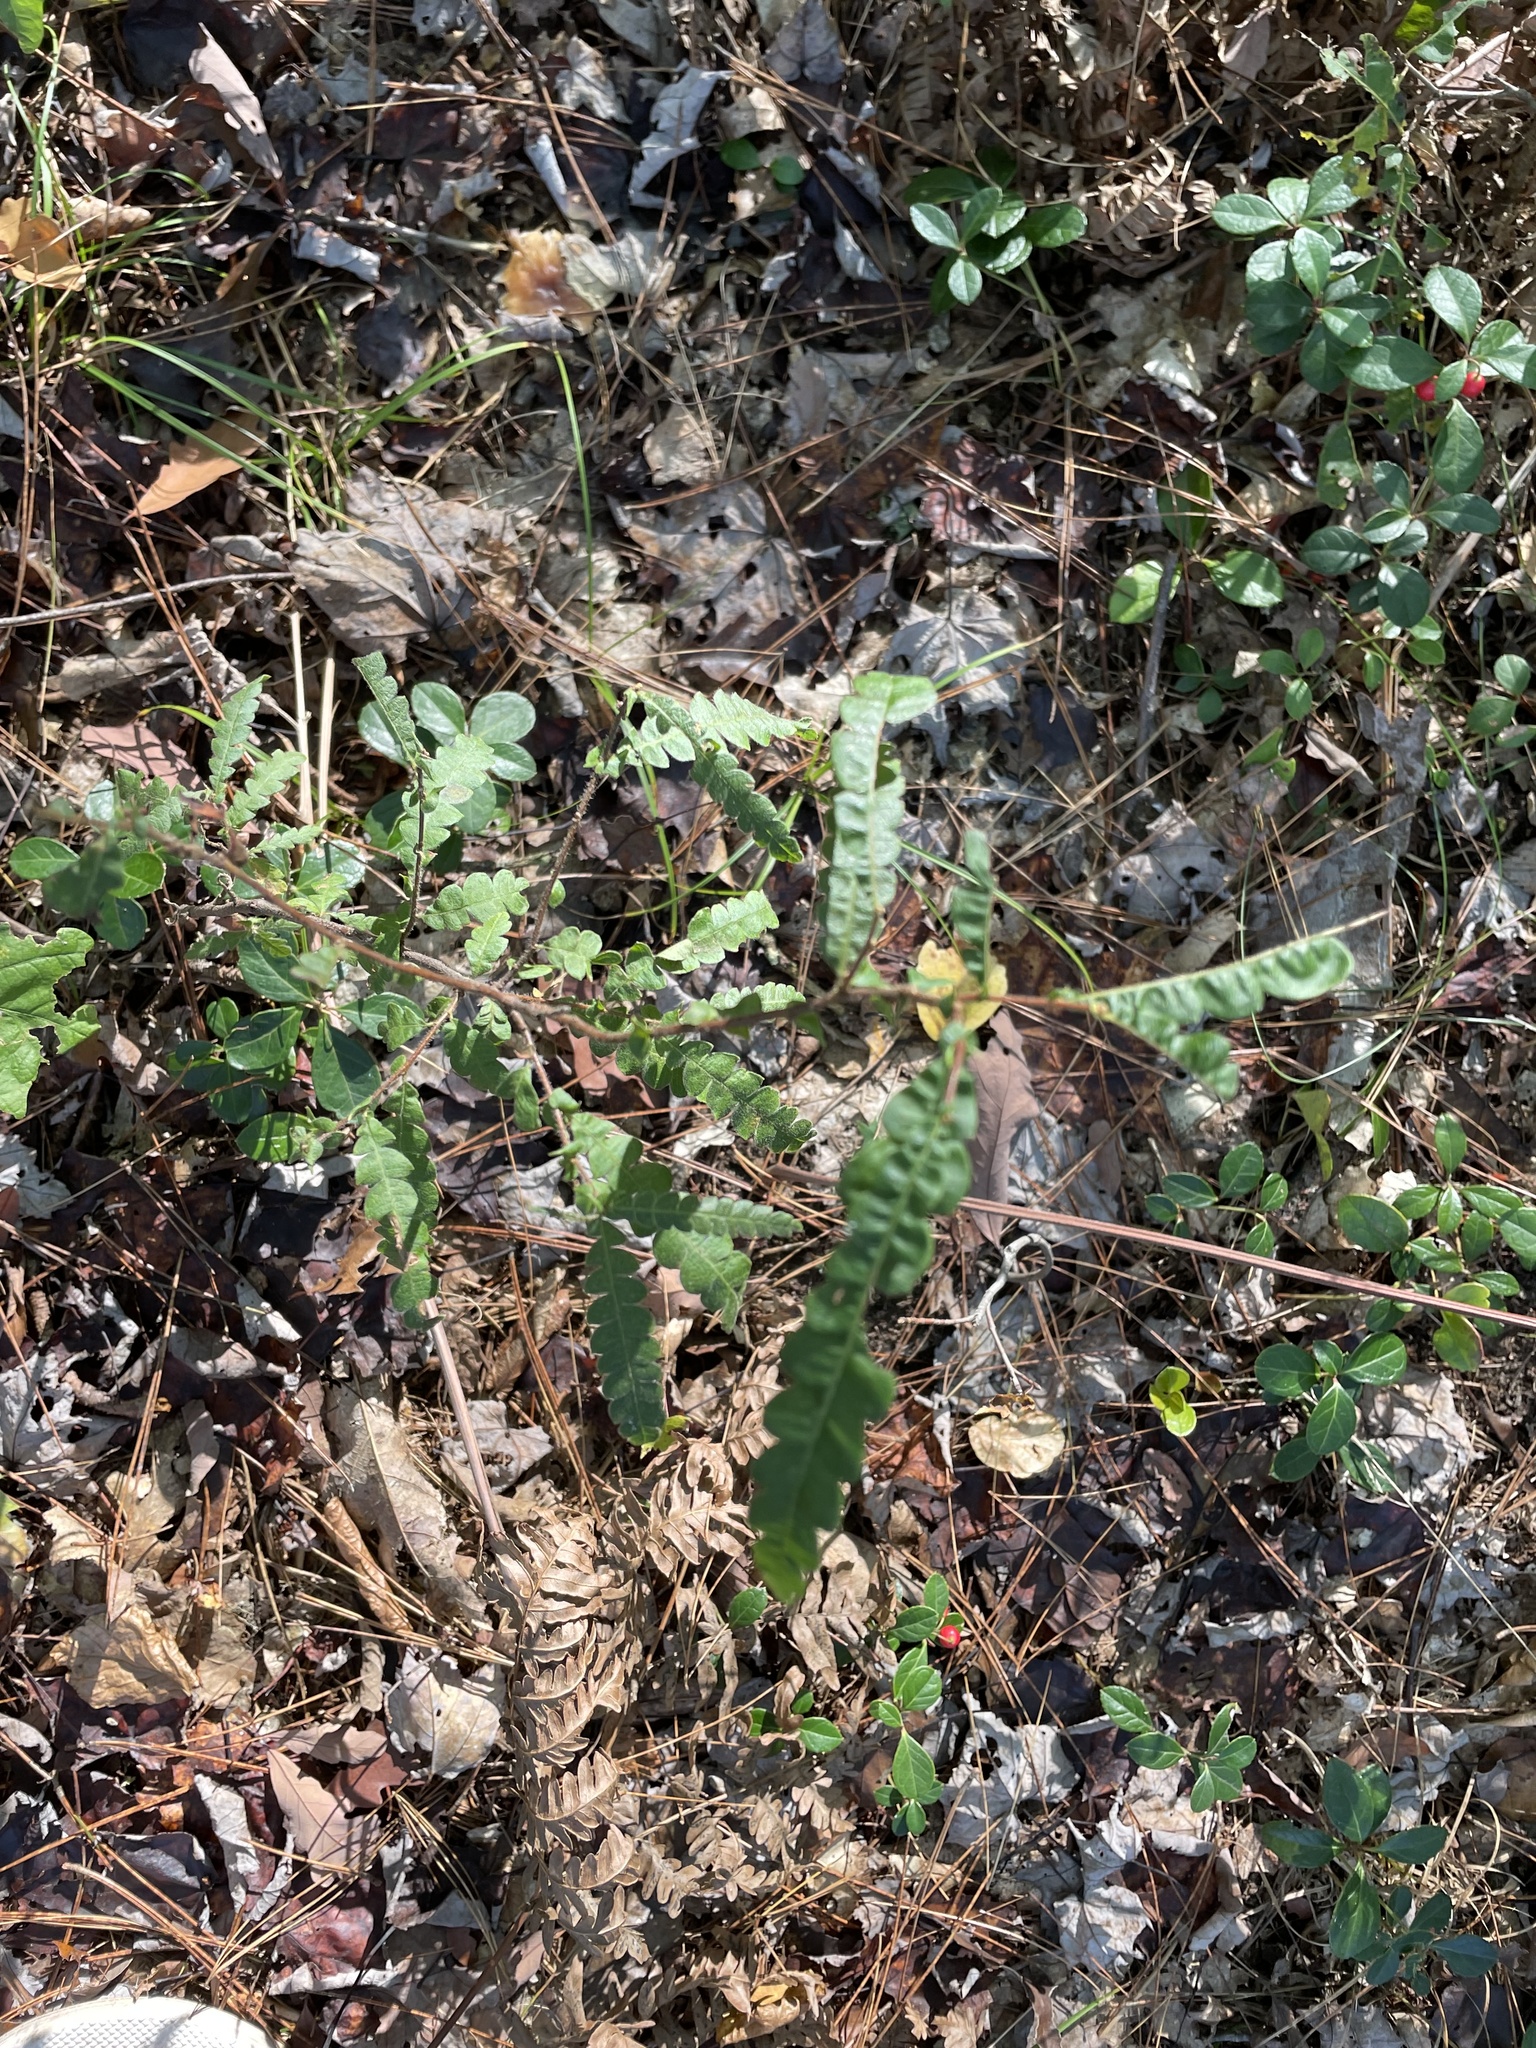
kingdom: Plantae
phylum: Tracheophyta
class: Magnoliopsida
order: Fagales
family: Myricaceae
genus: Comptonia
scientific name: Comptonia peregrina
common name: Sweet-fern
